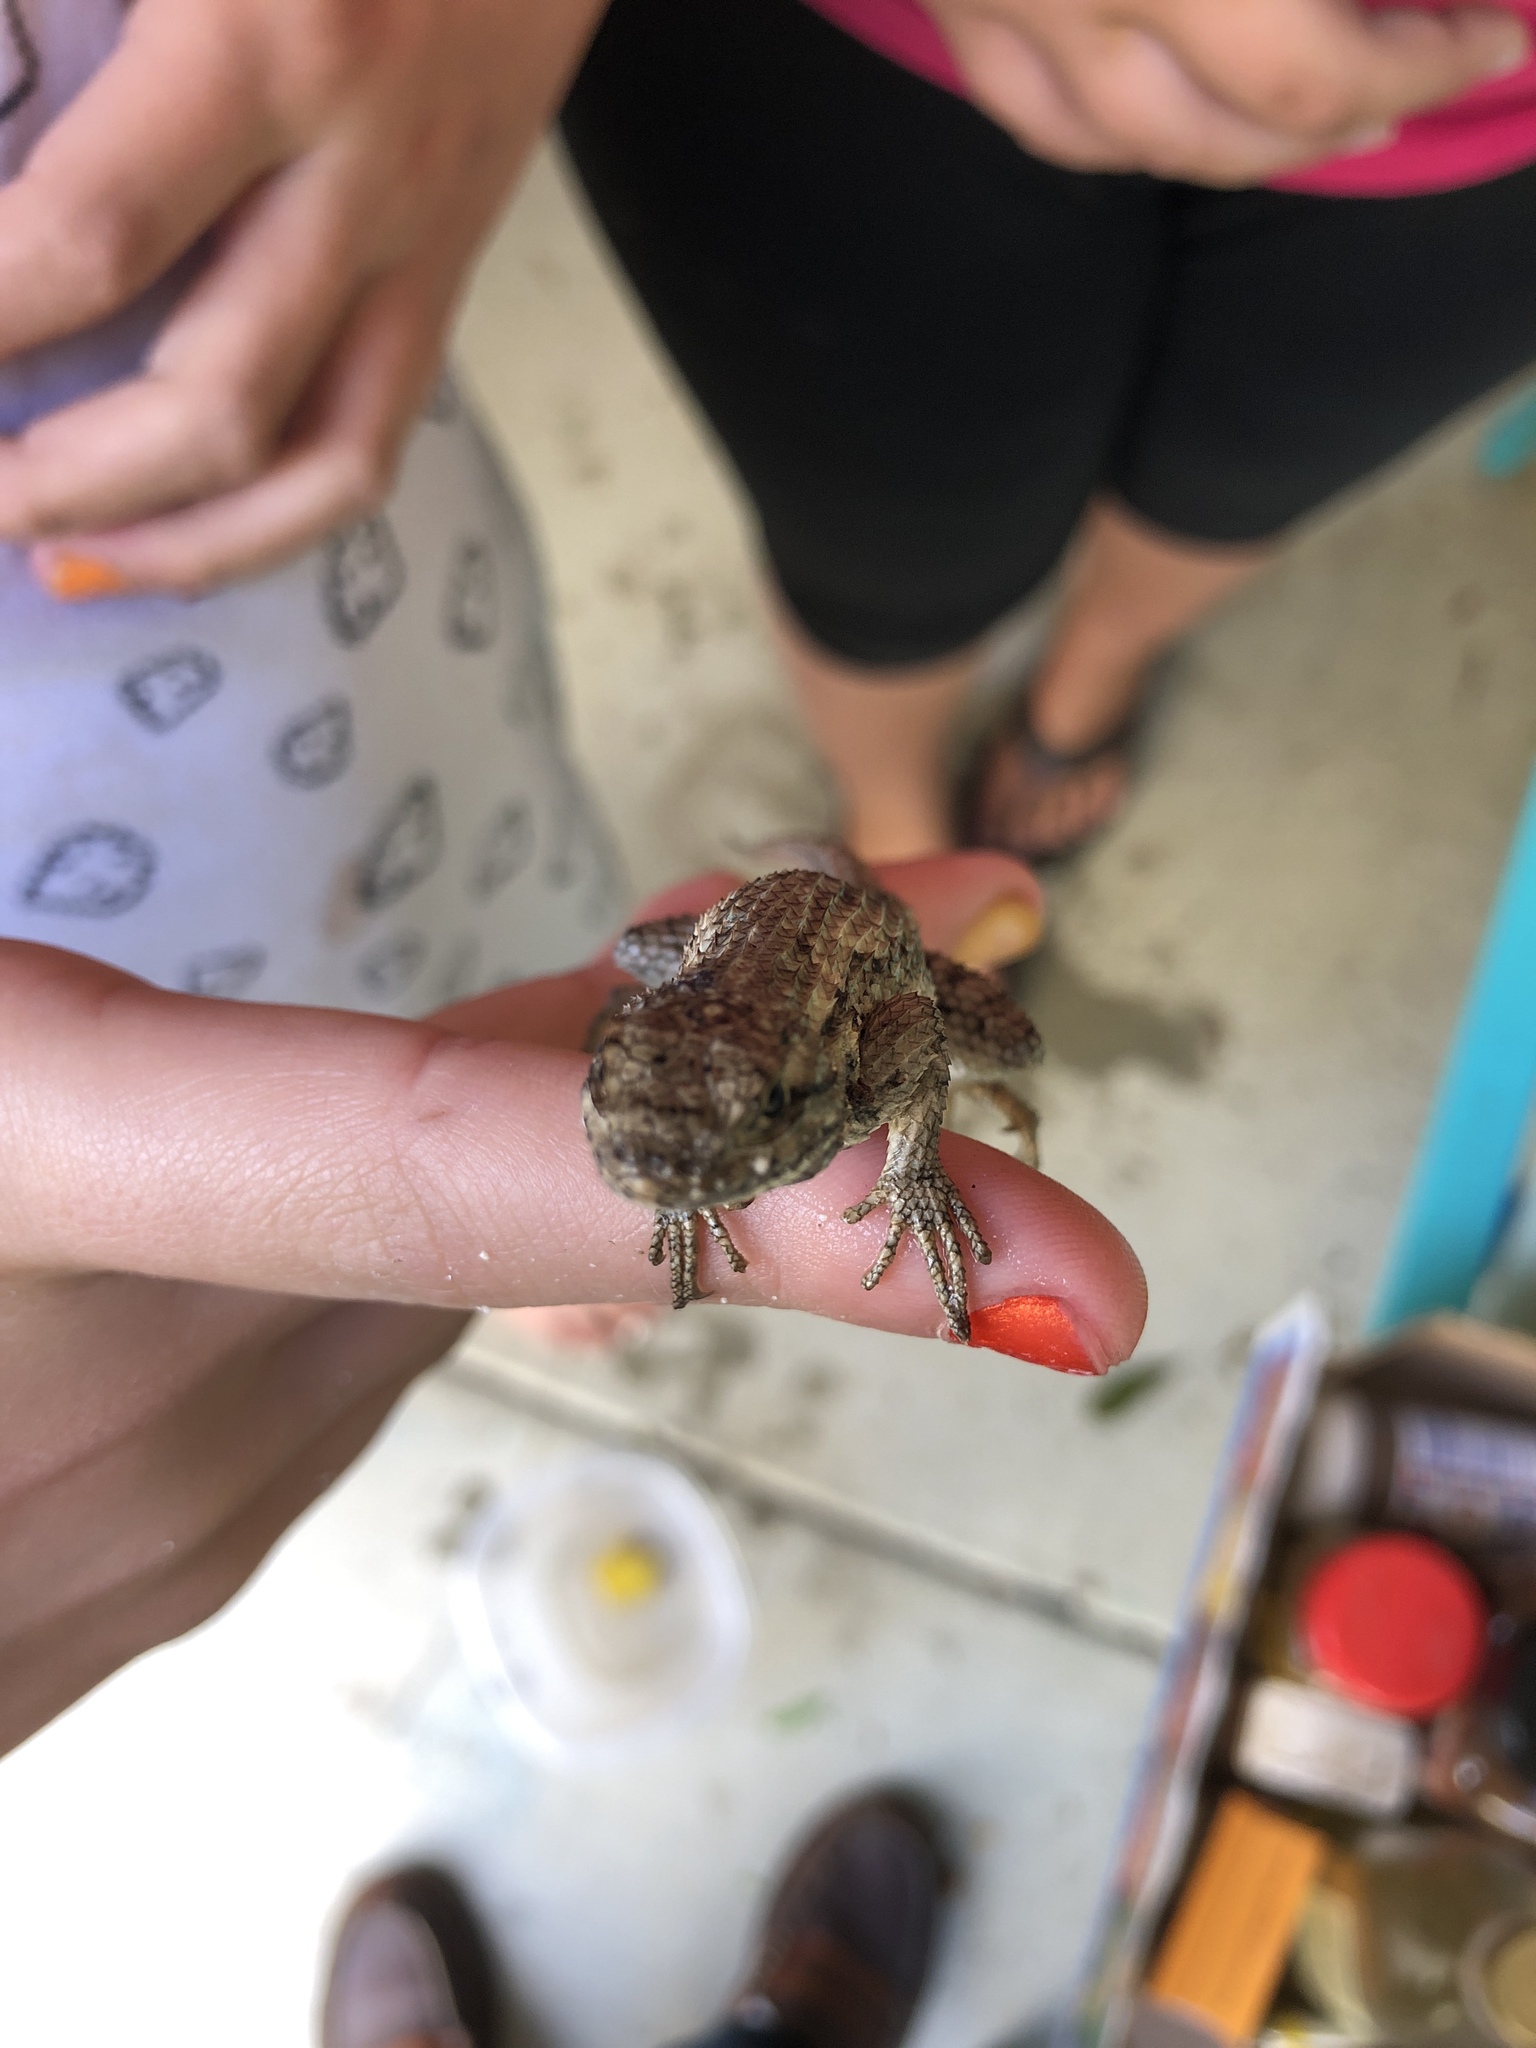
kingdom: Animalia
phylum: Chordata
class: Squamata
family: Phrynosomatidae
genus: Sceloporus
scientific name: Sceloporus occidentalis
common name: Western fence lizard
